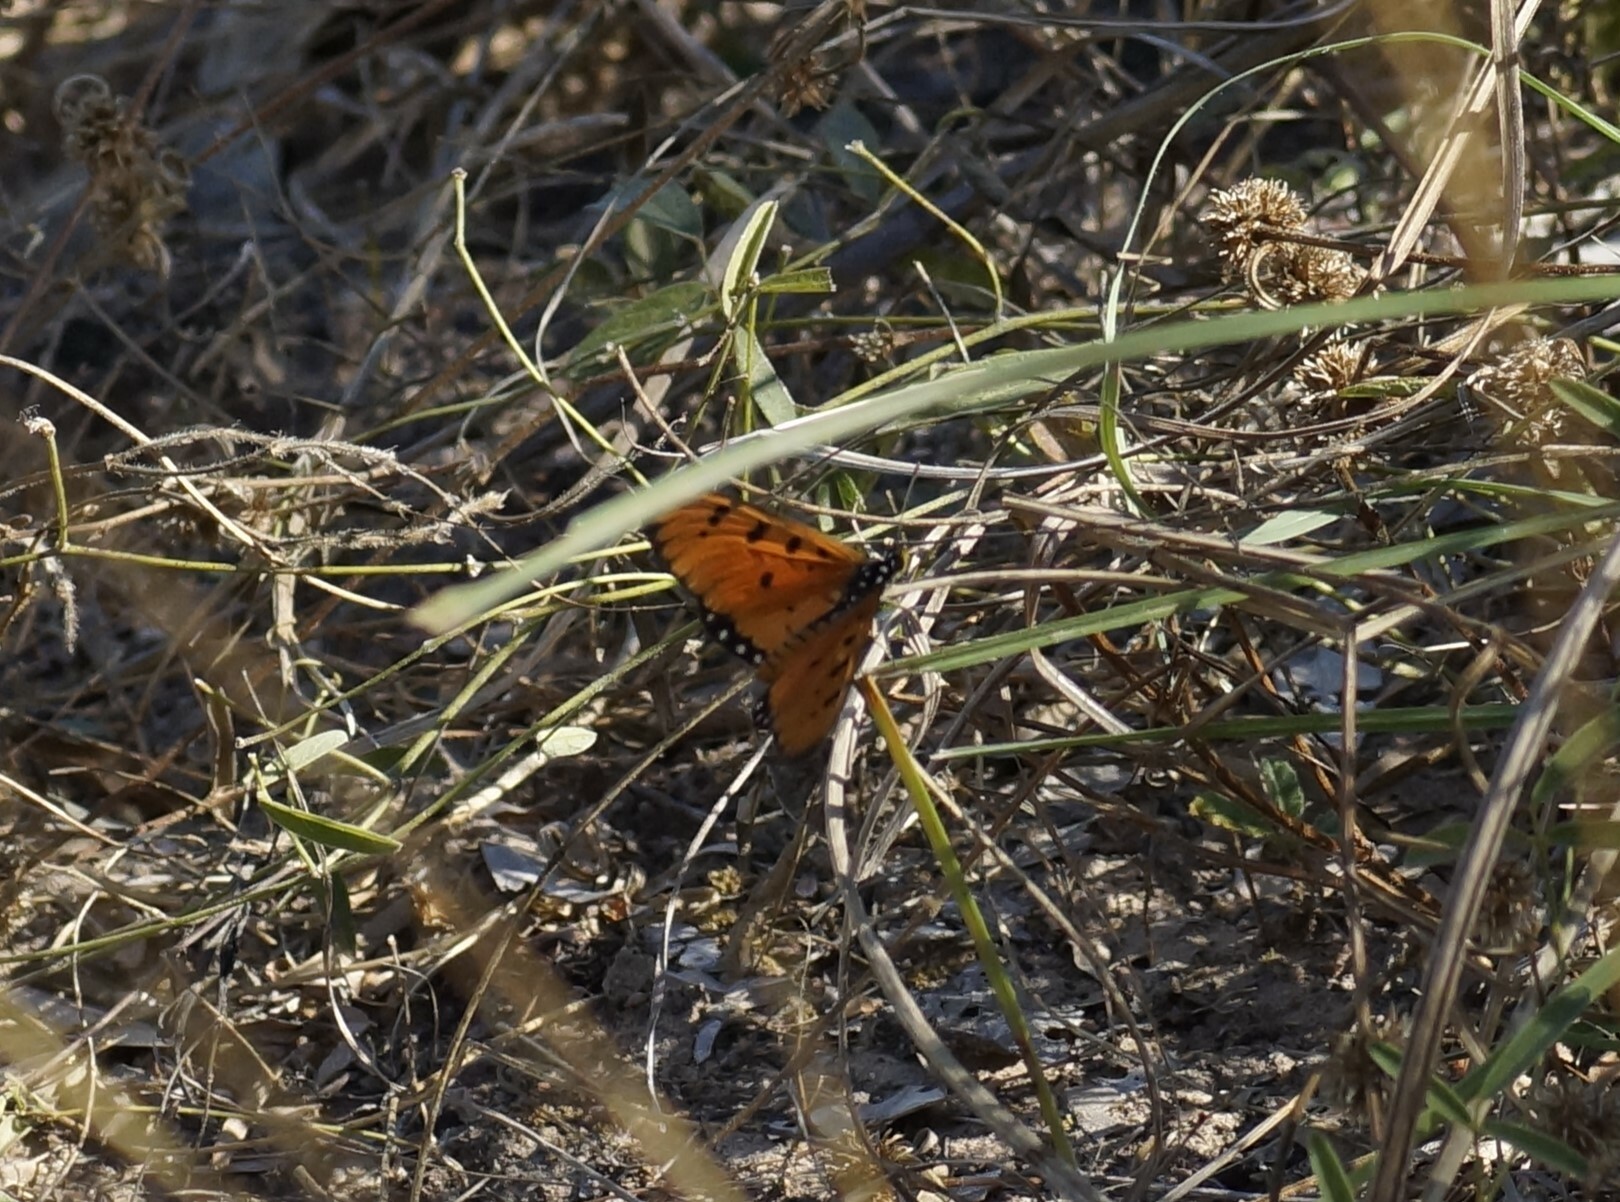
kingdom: Animalia
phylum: Arthropoda
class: Insecta
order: Lepidoptera
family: Nymphalidae
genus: Acraea
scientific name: Acraea terpsicore
